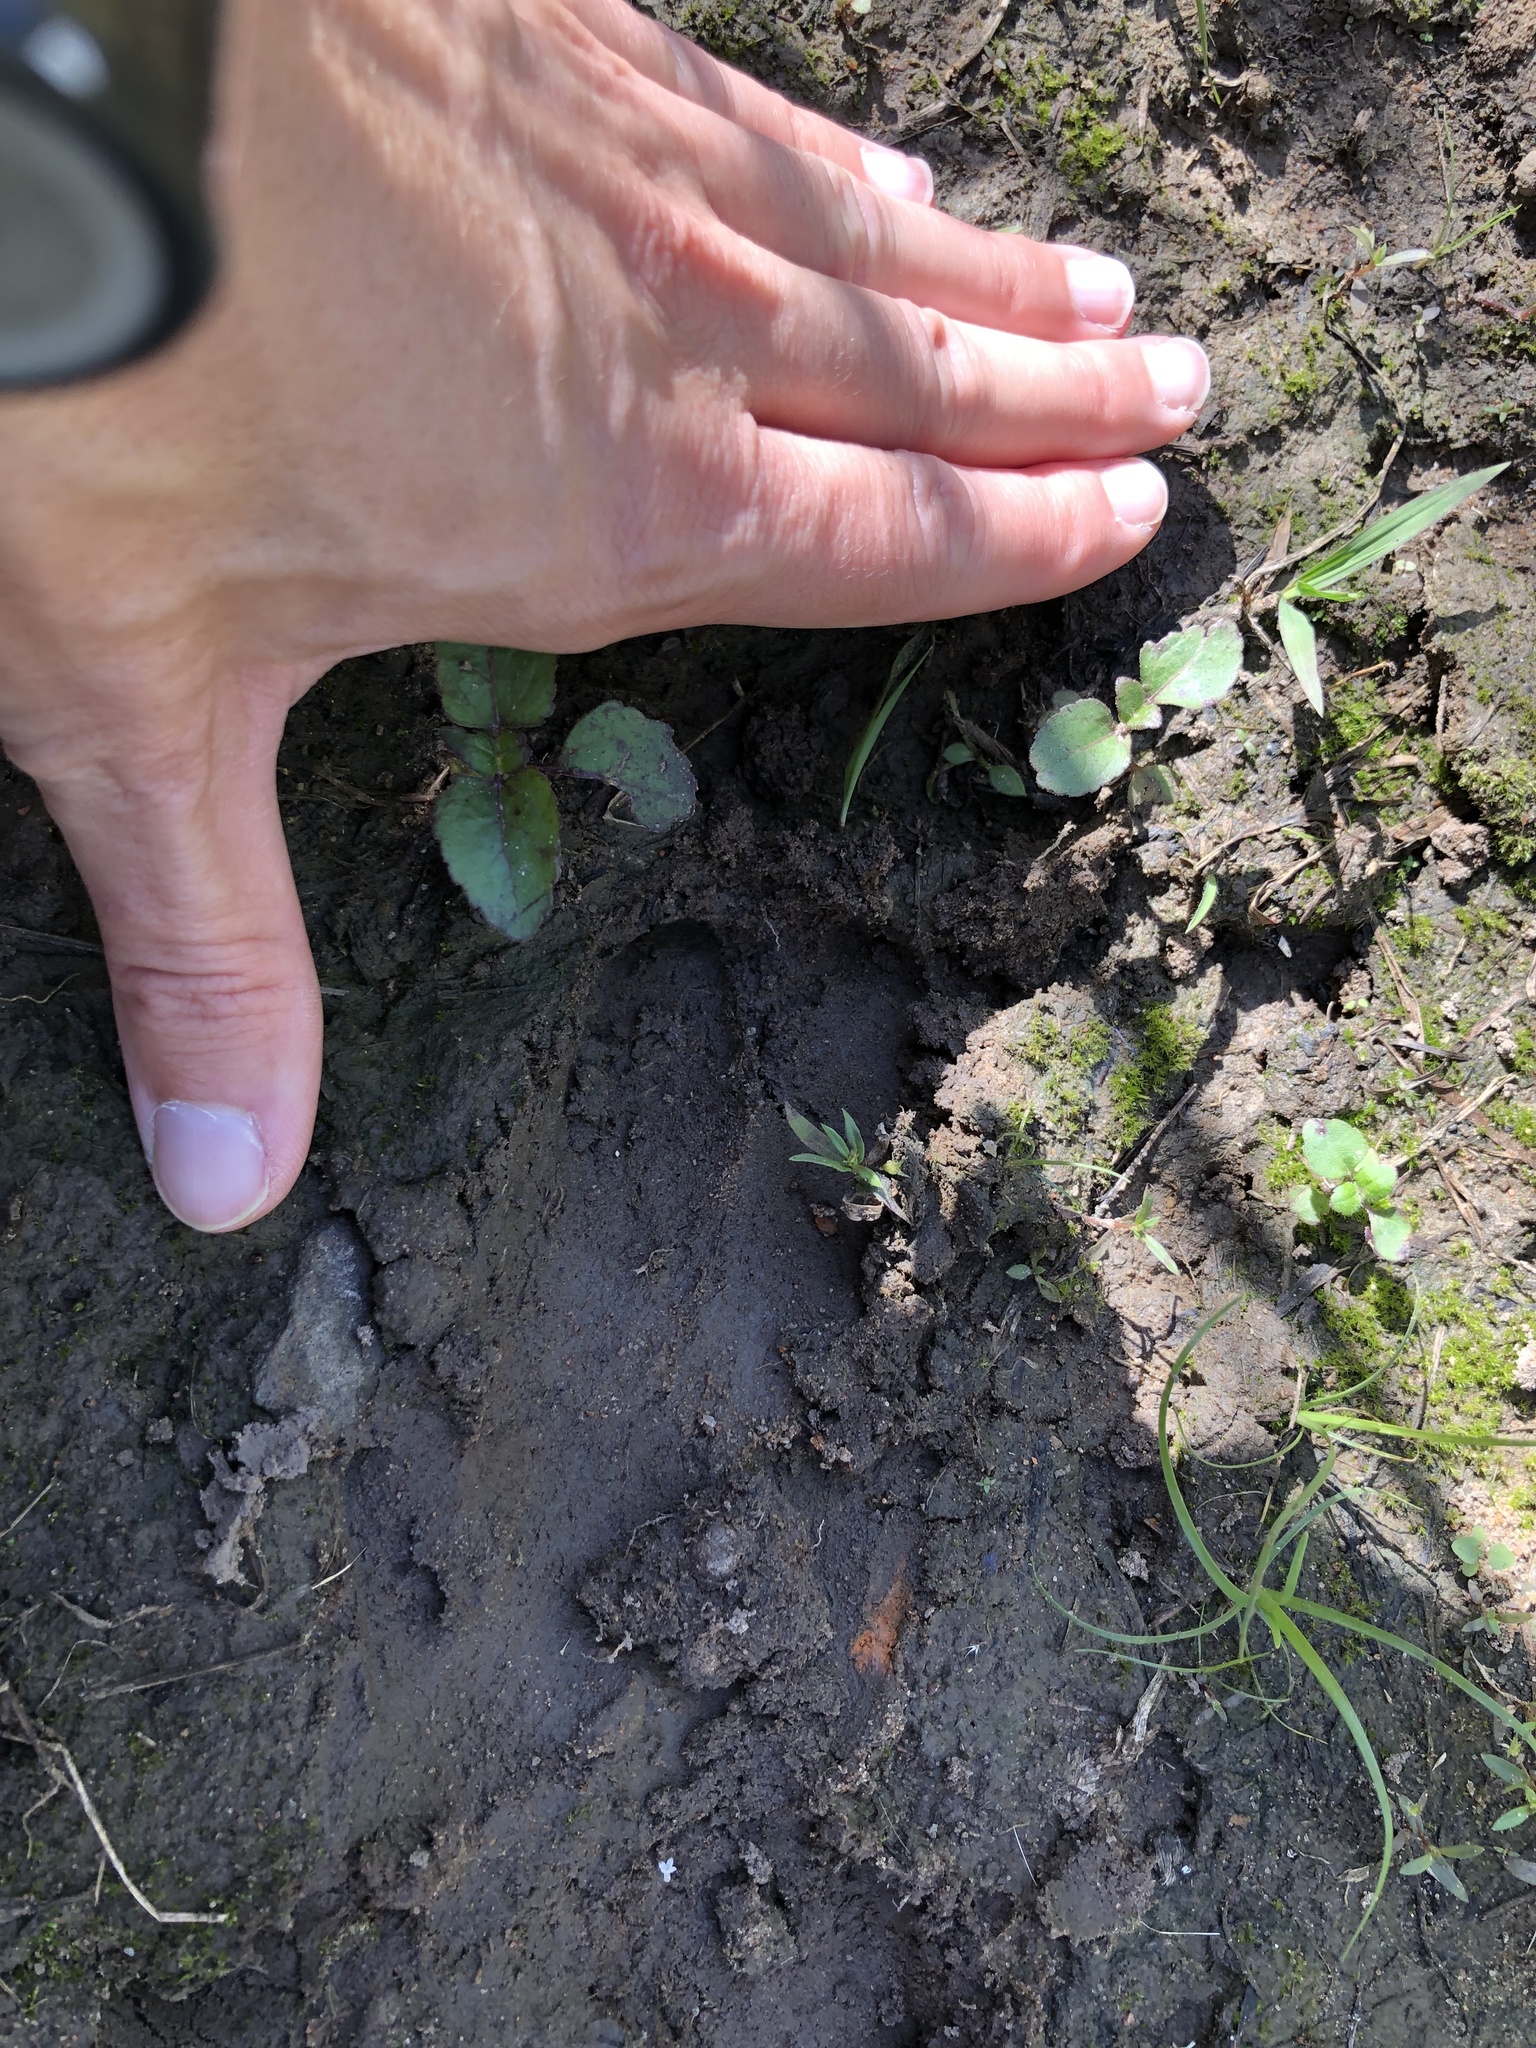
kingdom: Animalia
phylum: Chordata
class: Mammalia
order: Artiodactyla
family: Suidae
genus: Potamochoerus
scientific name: Potamochoerus larvatus
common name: Bushpig
